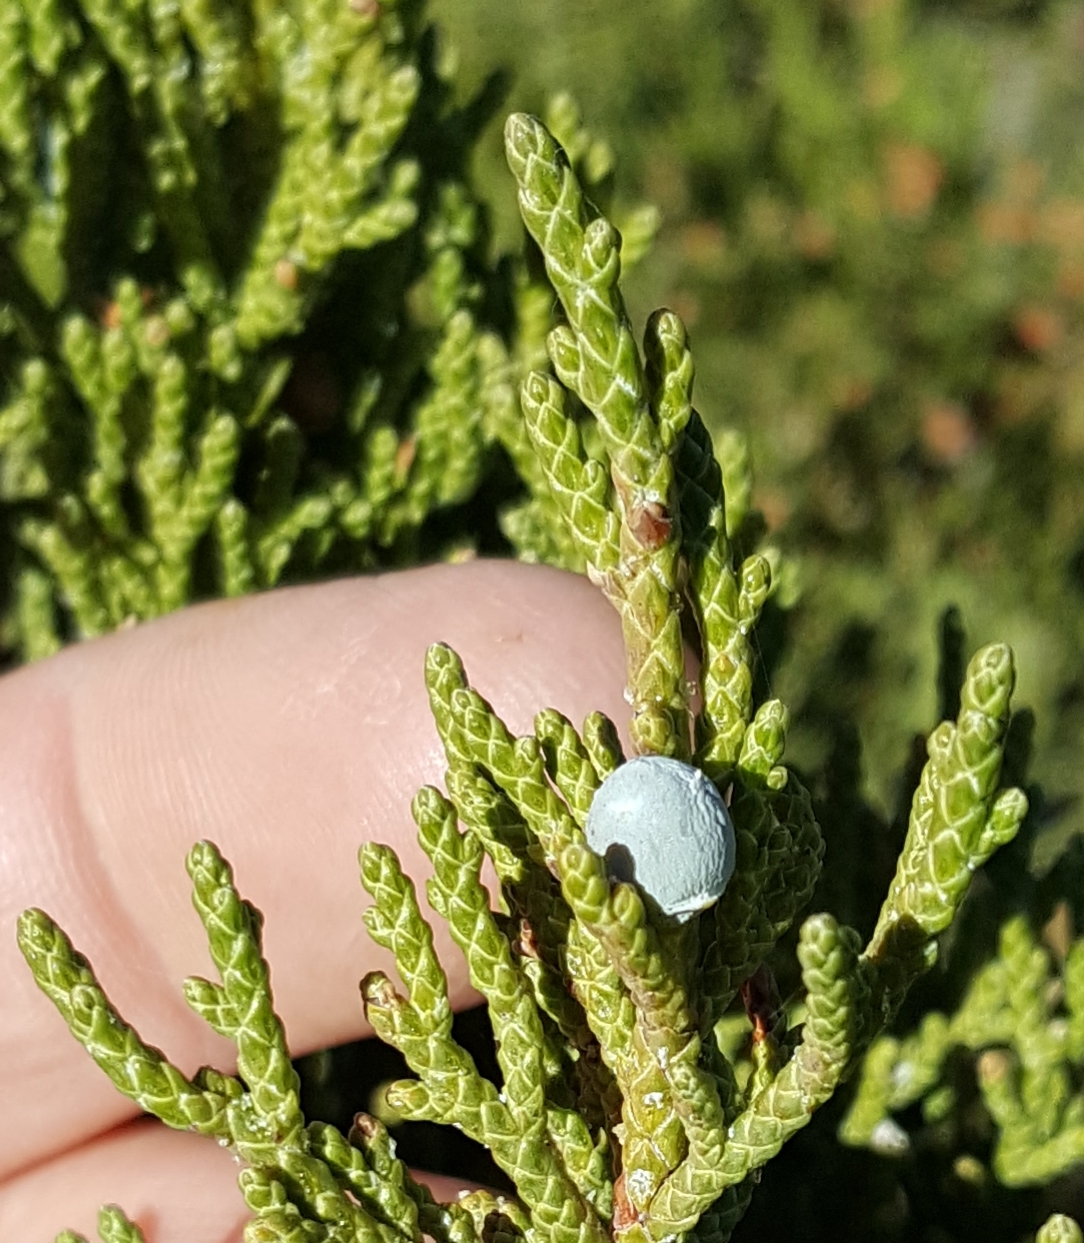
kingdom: Plantae
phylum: Tracheophyta
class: Pinopsida
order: Pinales
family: Cupressaceae
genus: Juniperus
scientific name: Juniperus occidentalis
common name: Western juniper
